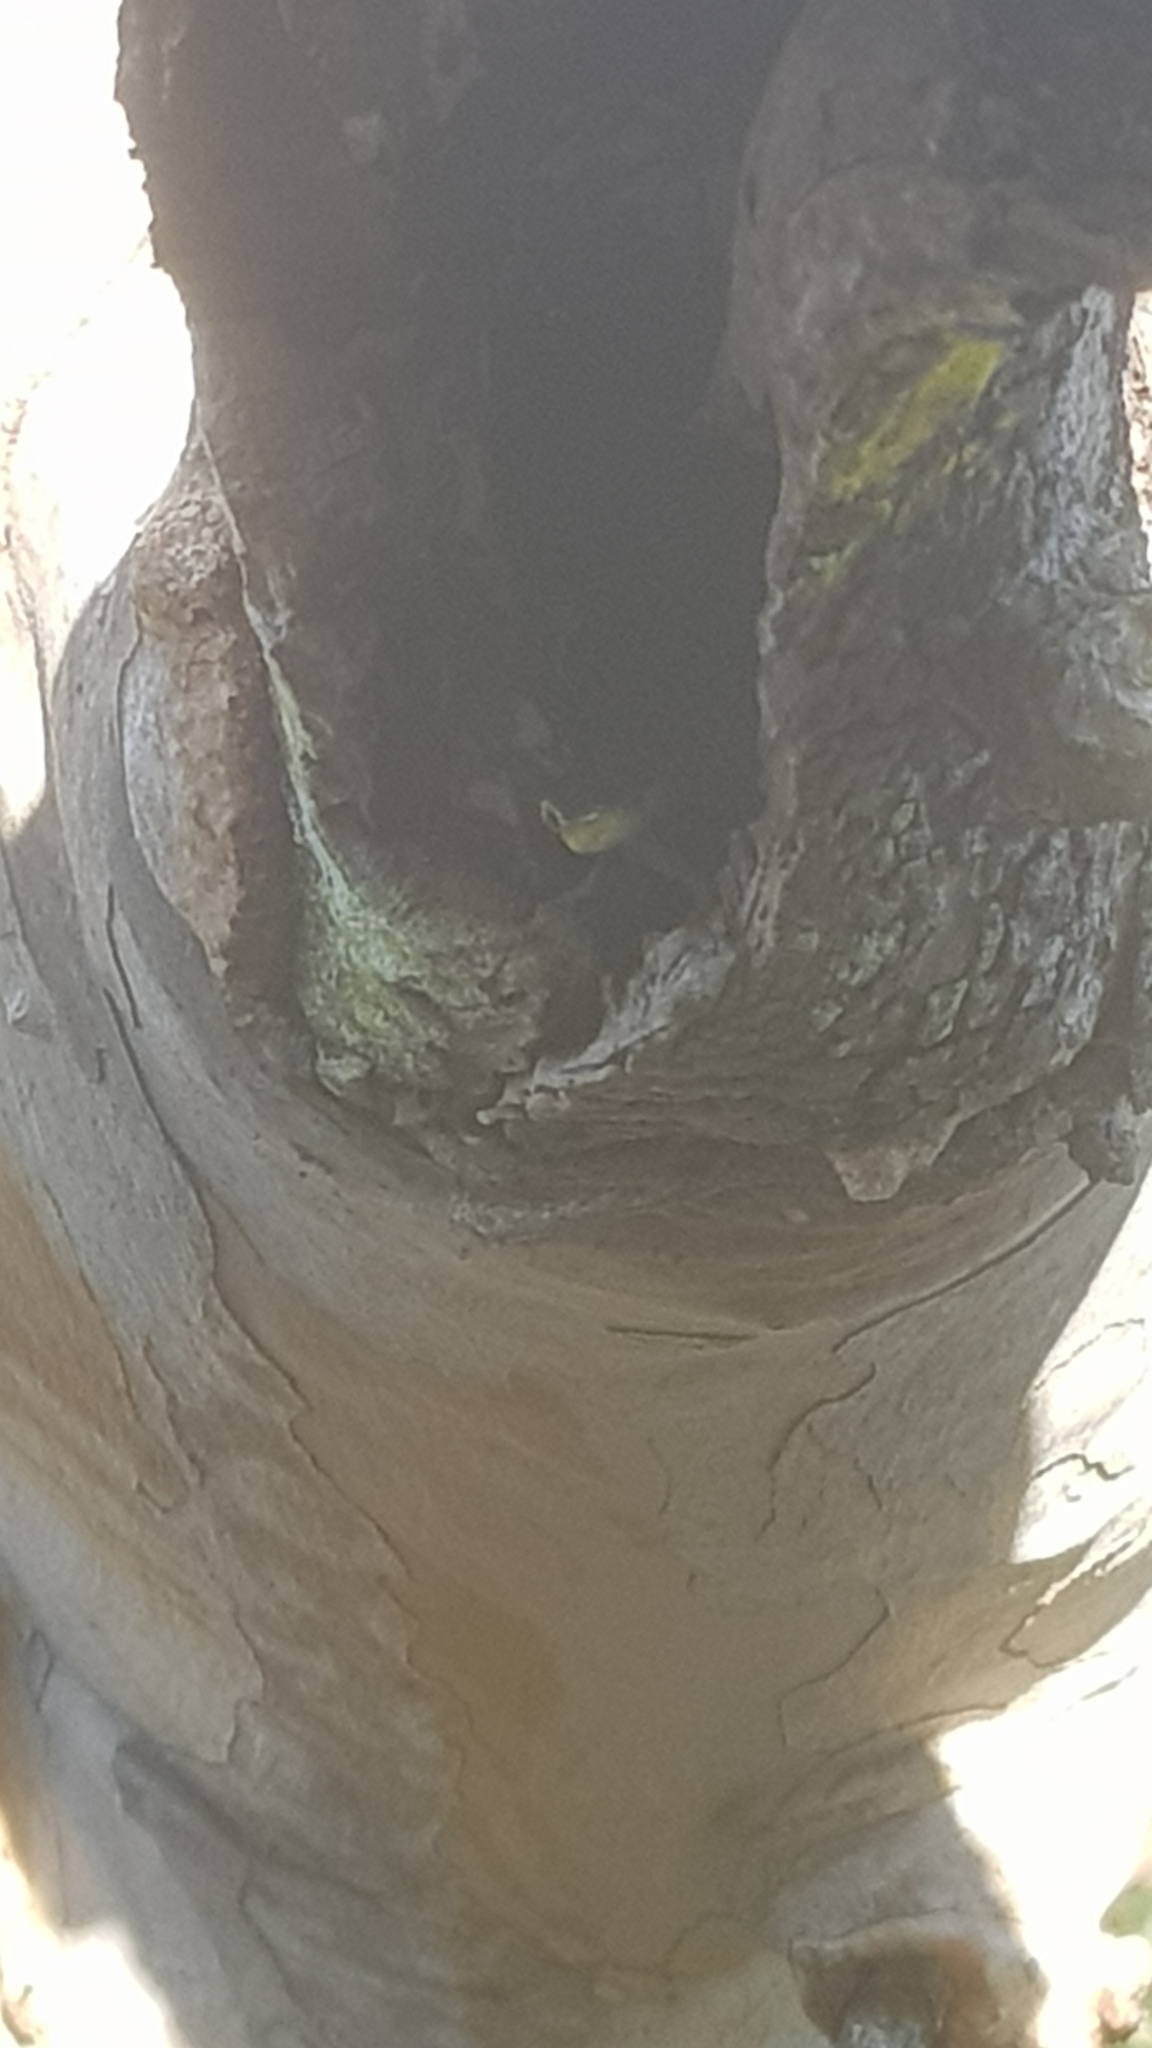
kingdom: Animalia
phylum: Chordata
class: Squamata
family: Colubridae
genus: Dendrelaphis
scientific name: Dendrelaphis punctulatus
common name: Common tree snake
